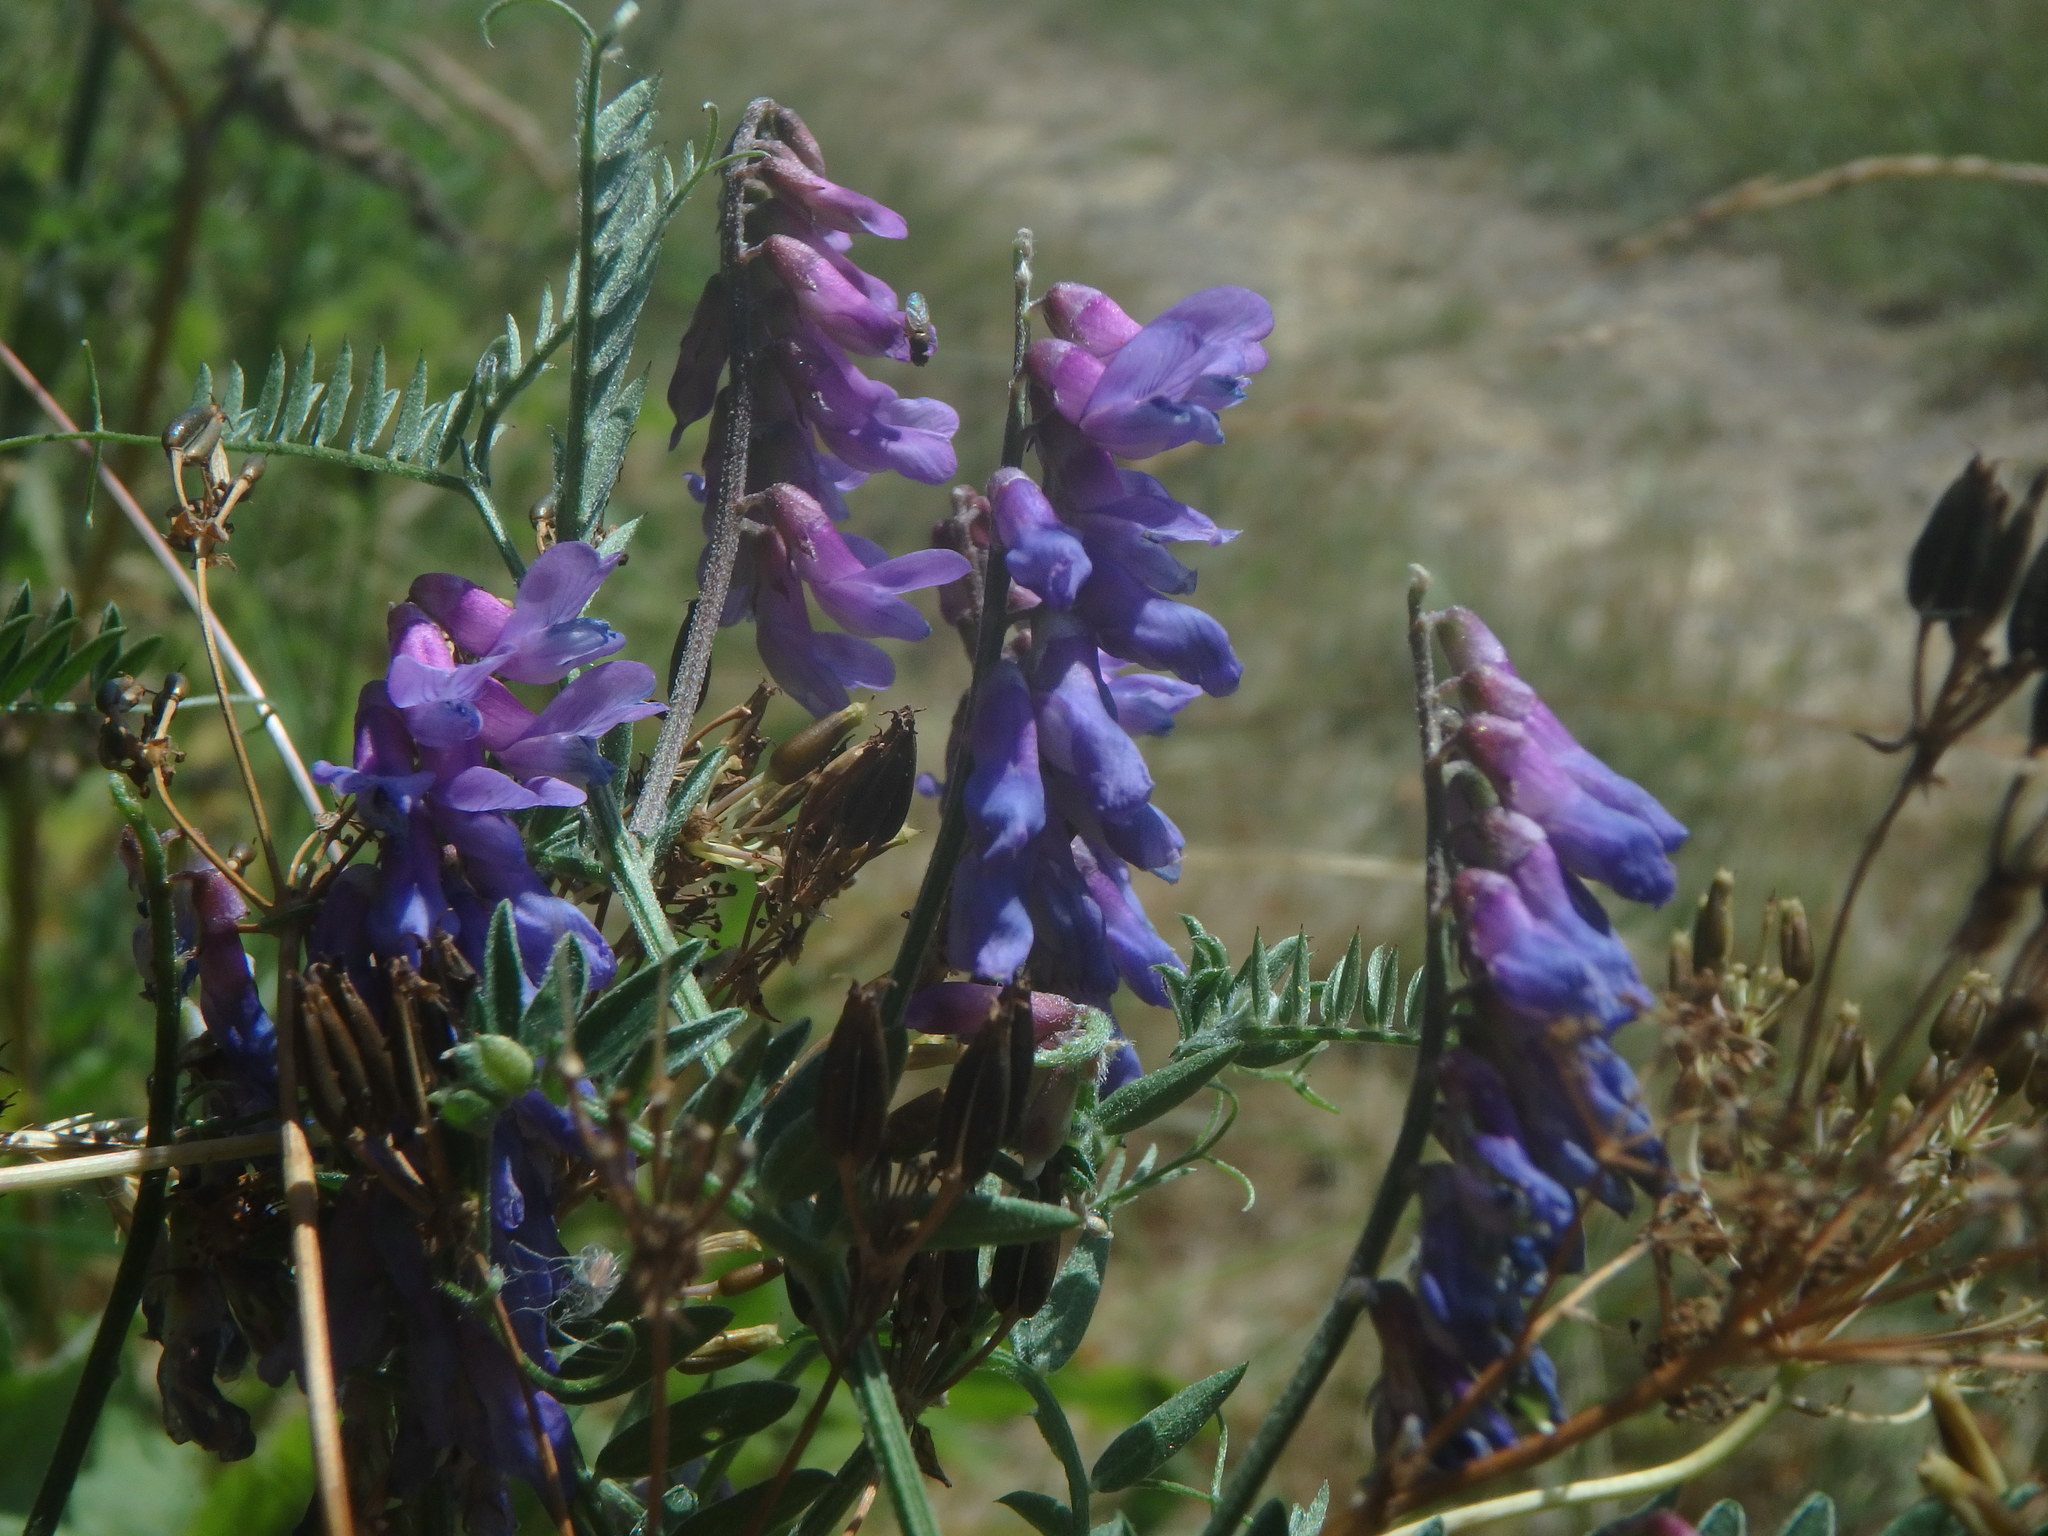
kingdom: Plantae
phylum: Tracheophyta
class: Magnoliopsida
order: Fabales
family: Fabaceae
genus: Vicia
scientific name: Vicia cracca
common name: Bird vetch
